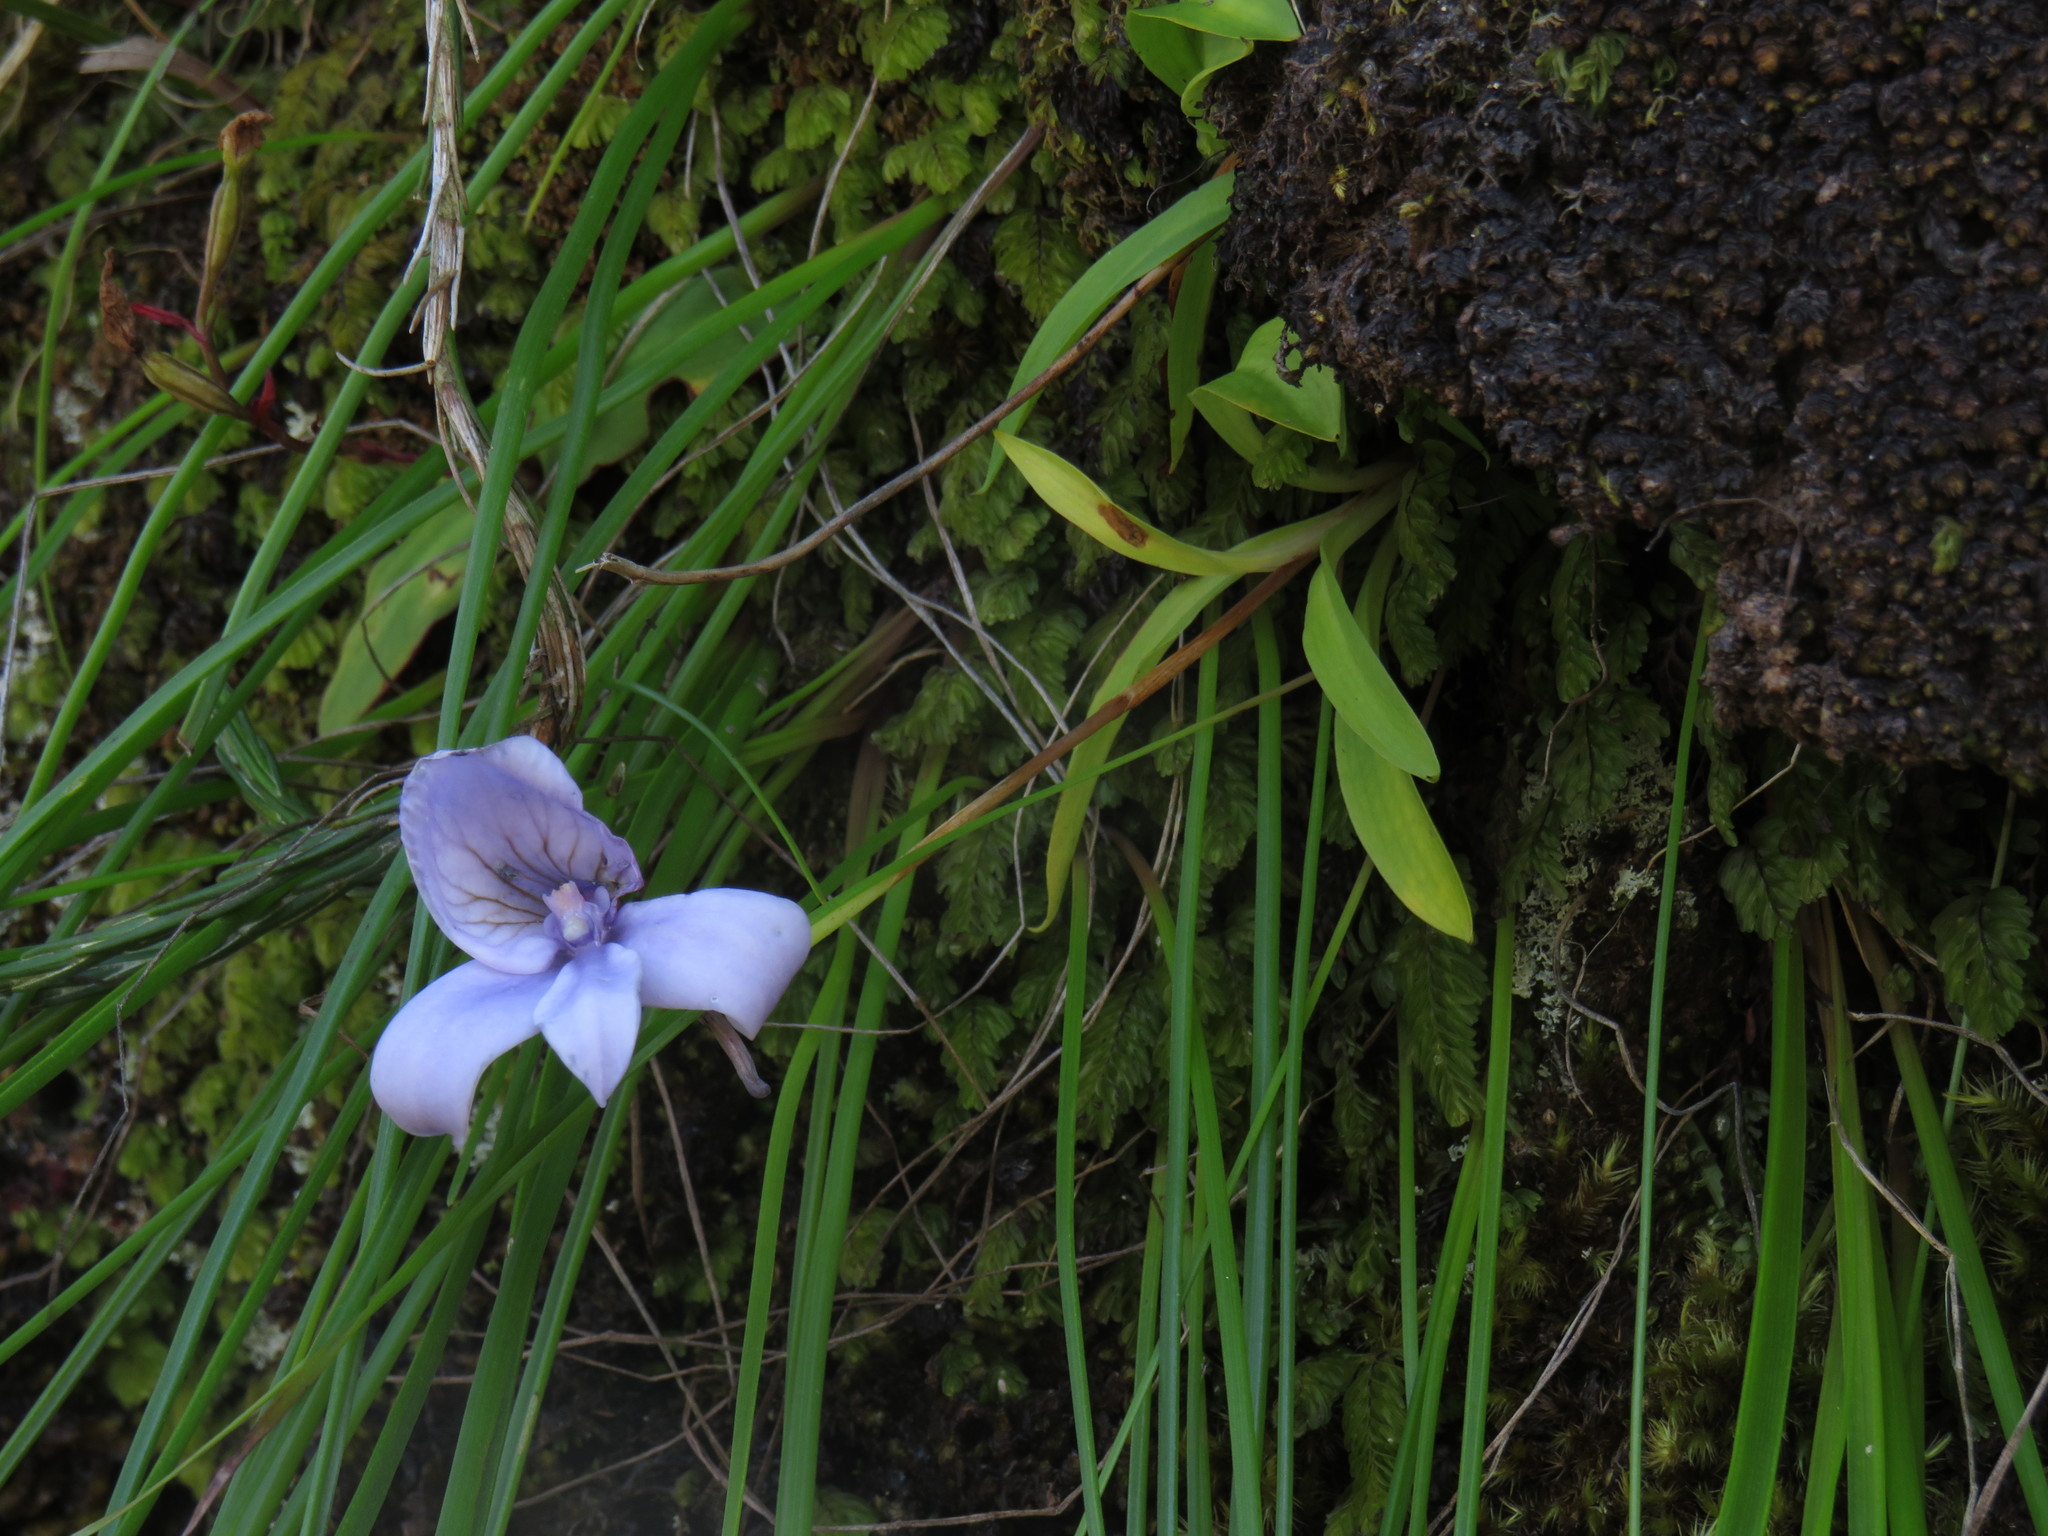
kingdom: Plantae
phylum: Tracheophyta
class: Liliopsida
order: Asparagales
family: Orchidaceae
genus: Disa
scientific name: Disa longicornu
